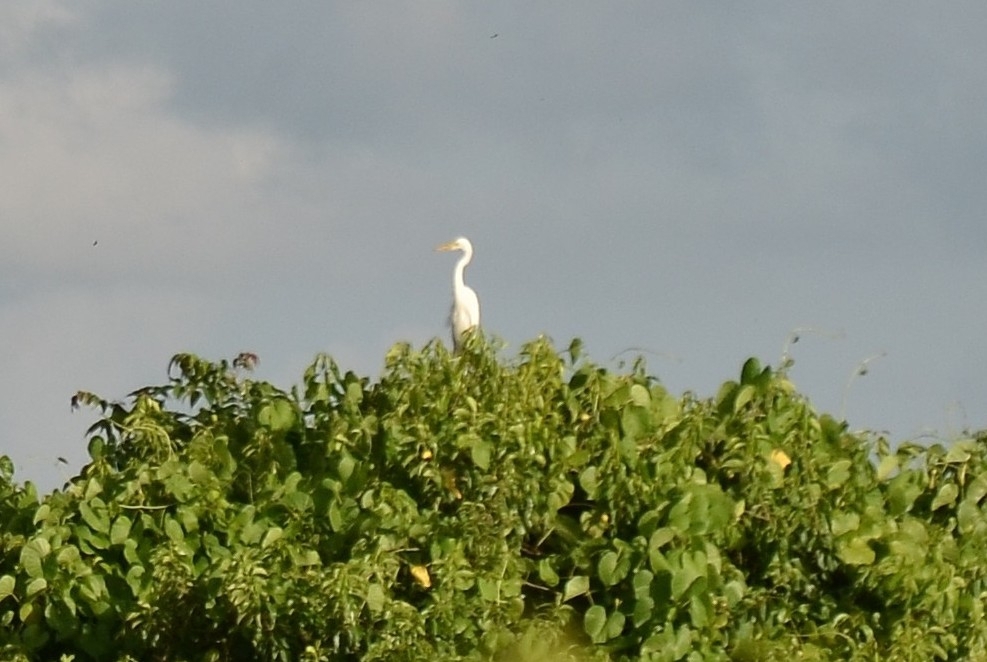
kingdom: Animalia
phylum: Chordata
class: Aves
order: Pelecaniformes
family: Ardeidae
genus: Ardea
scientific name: Ardea alba
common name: Great egret
